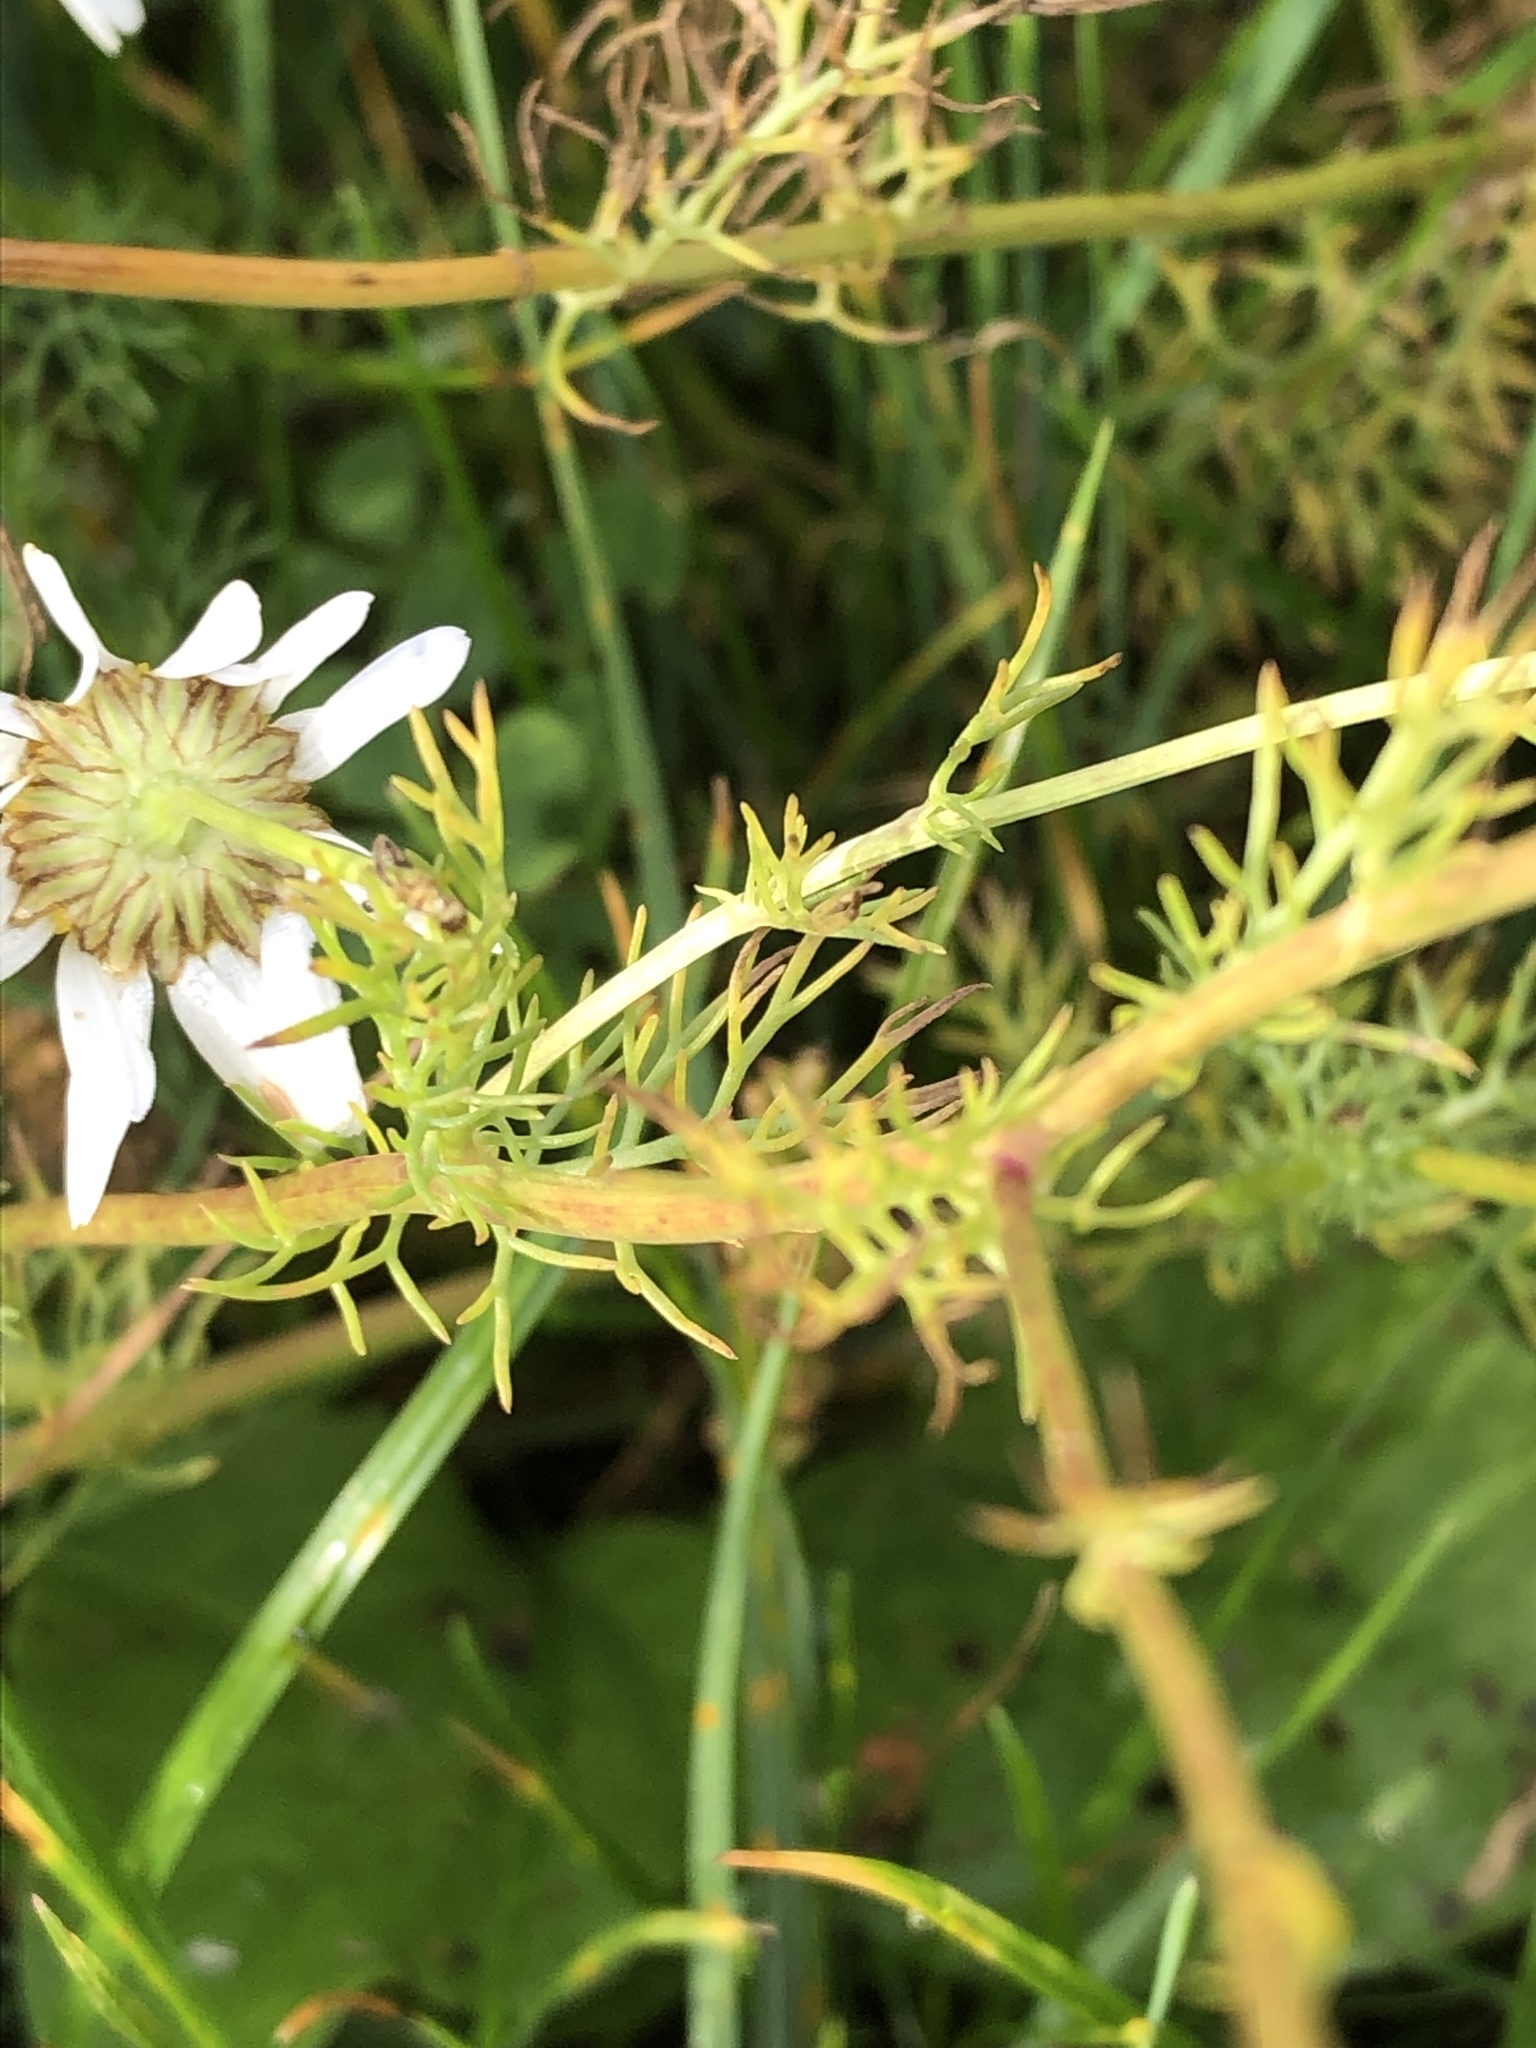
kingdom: Plantae
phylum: Tracheophyta
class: Magnoliopsida
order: Asterales
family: Asteraceae
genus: Tripleurospermum
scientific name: Tripleurospermum inodorum
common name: Scentless mayweed
